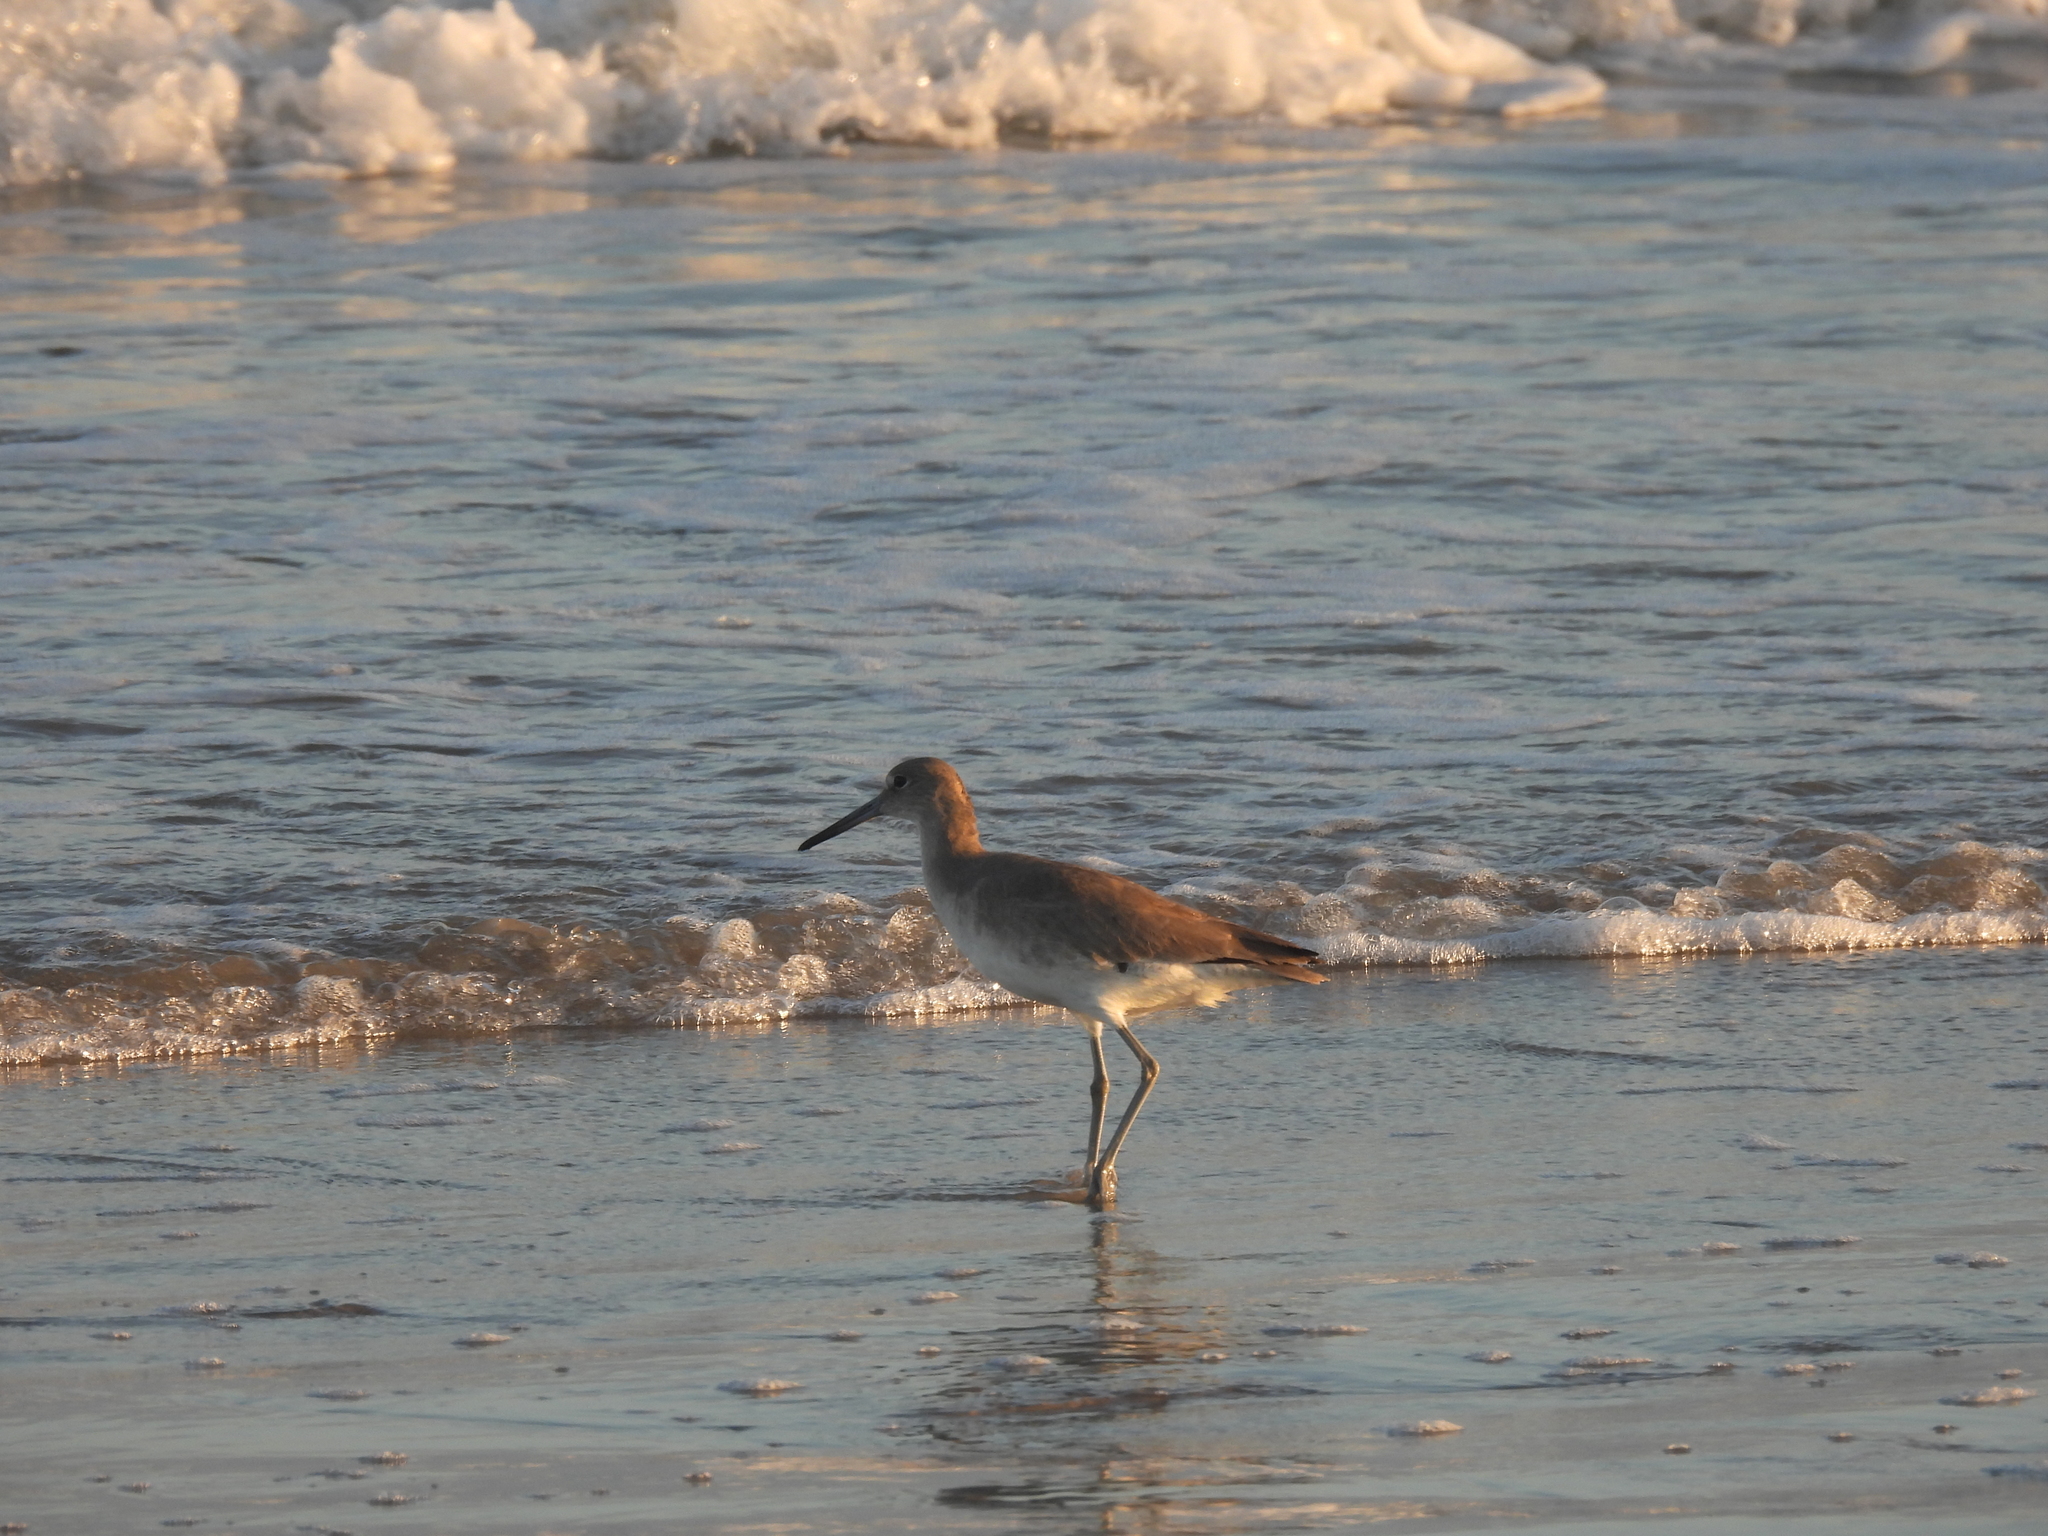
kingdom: Animalia
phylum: Chordata
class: Aves
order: Charadriiformes
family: Scolopacidae
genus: Tringa
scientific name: Tringa semipalmata
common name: Willet
